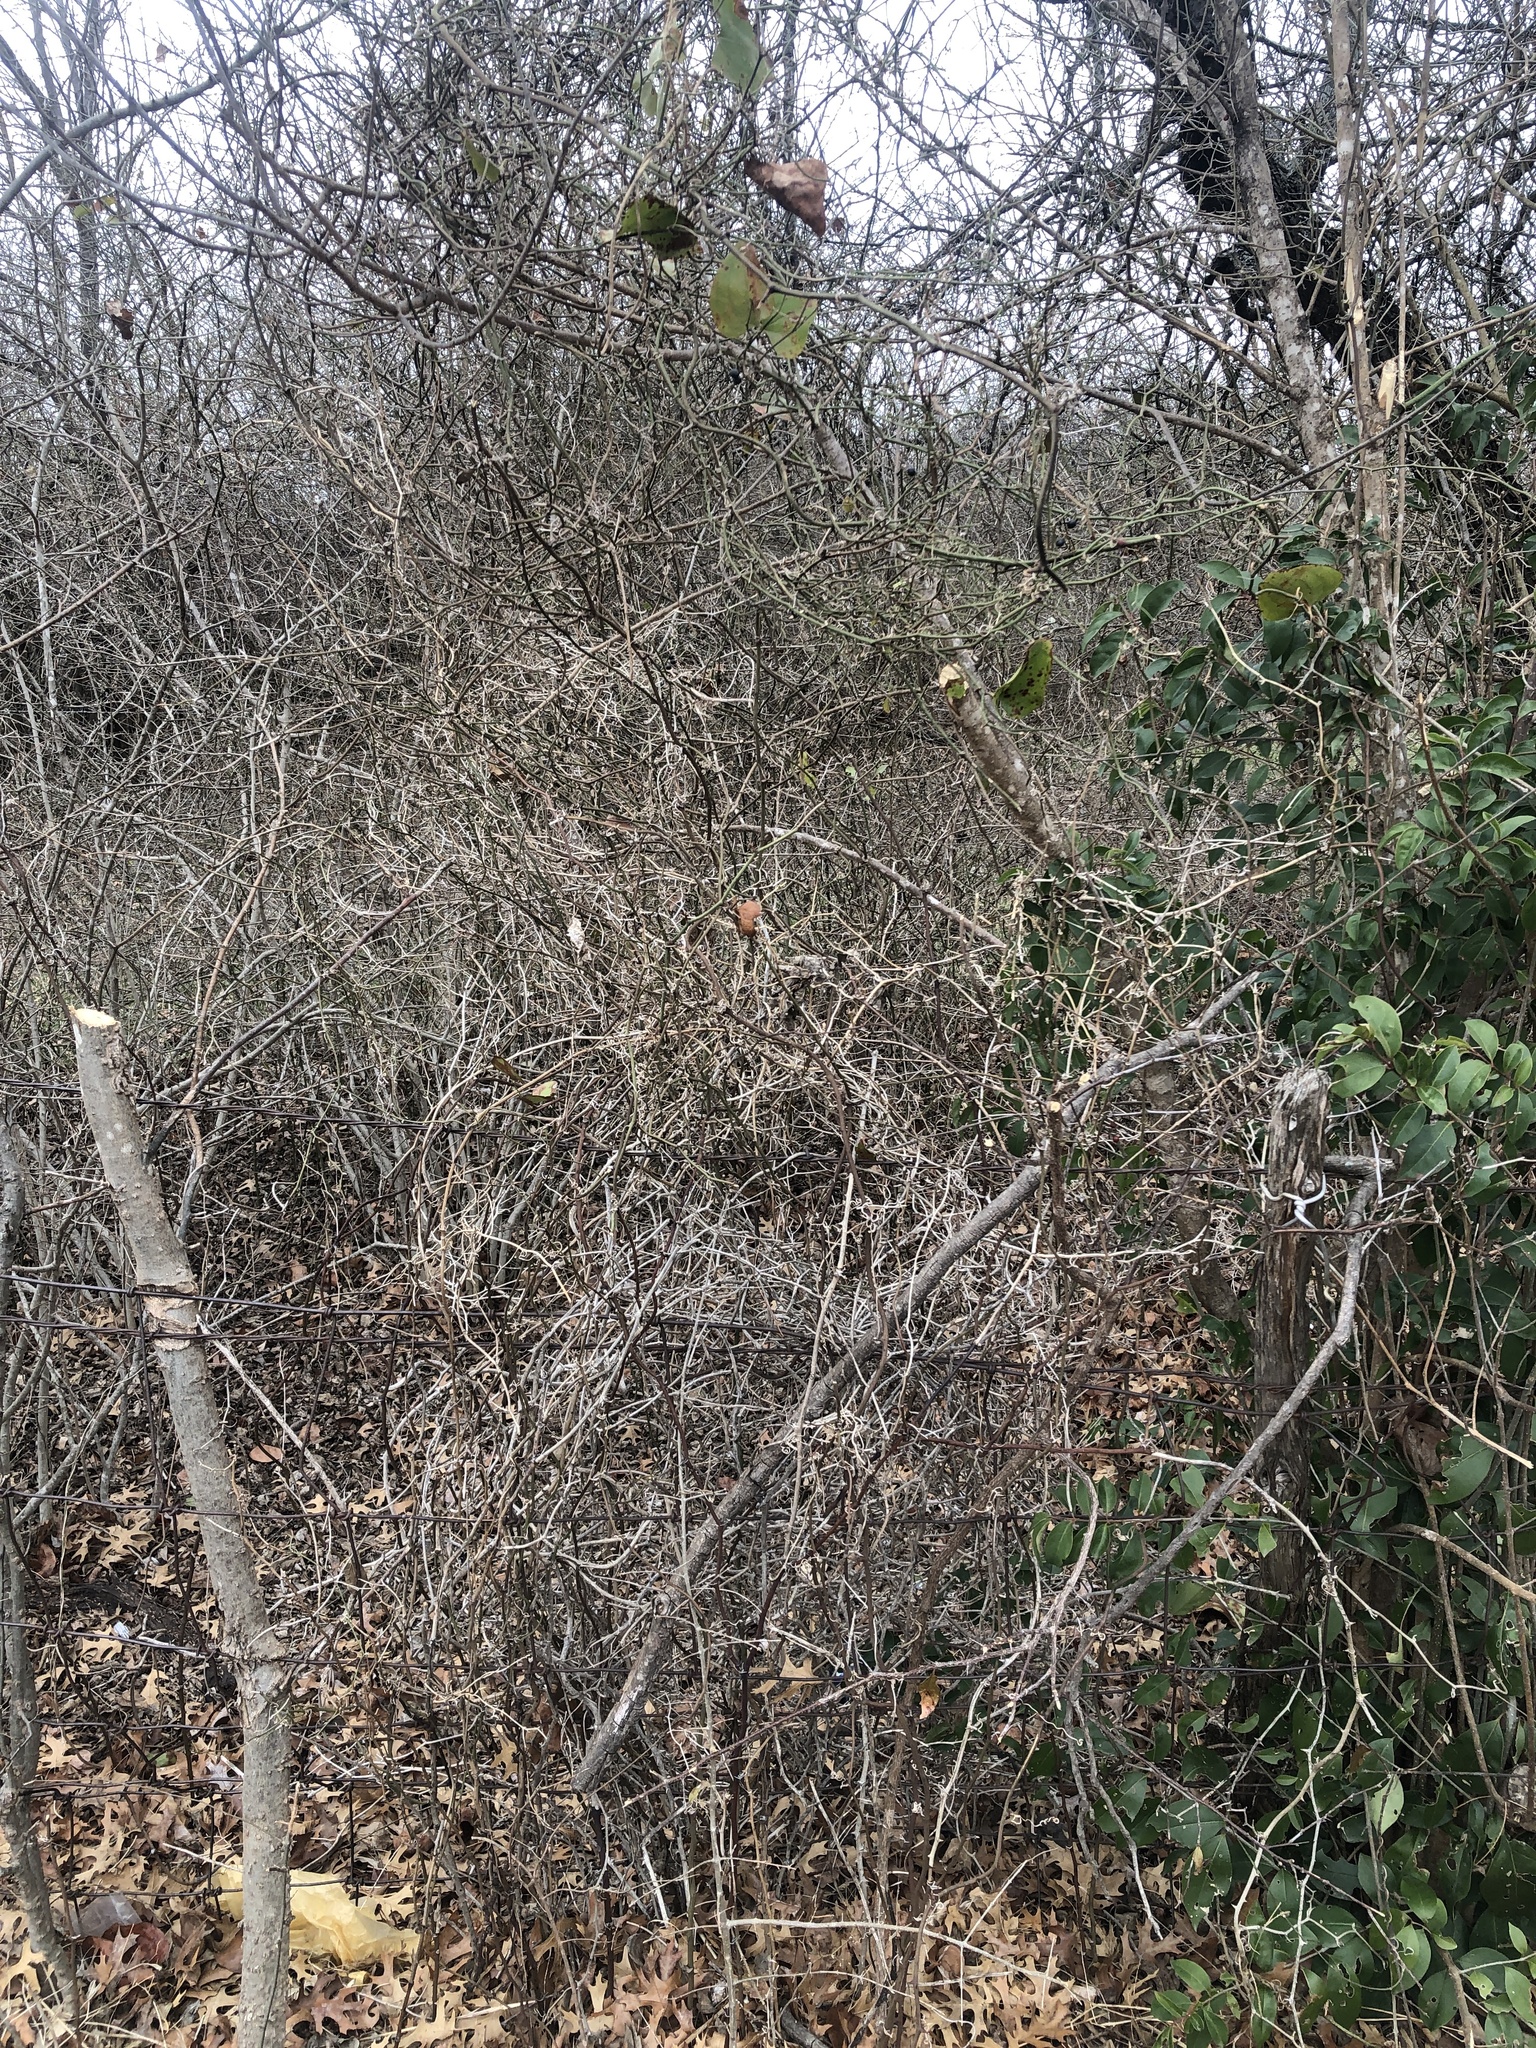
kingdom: Plantae
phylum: Tracheophyta
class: Liliopsida
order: Liliales
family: Smilacaceae
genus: Smilax
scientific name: Smilax bona-nox
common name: Catbrier
